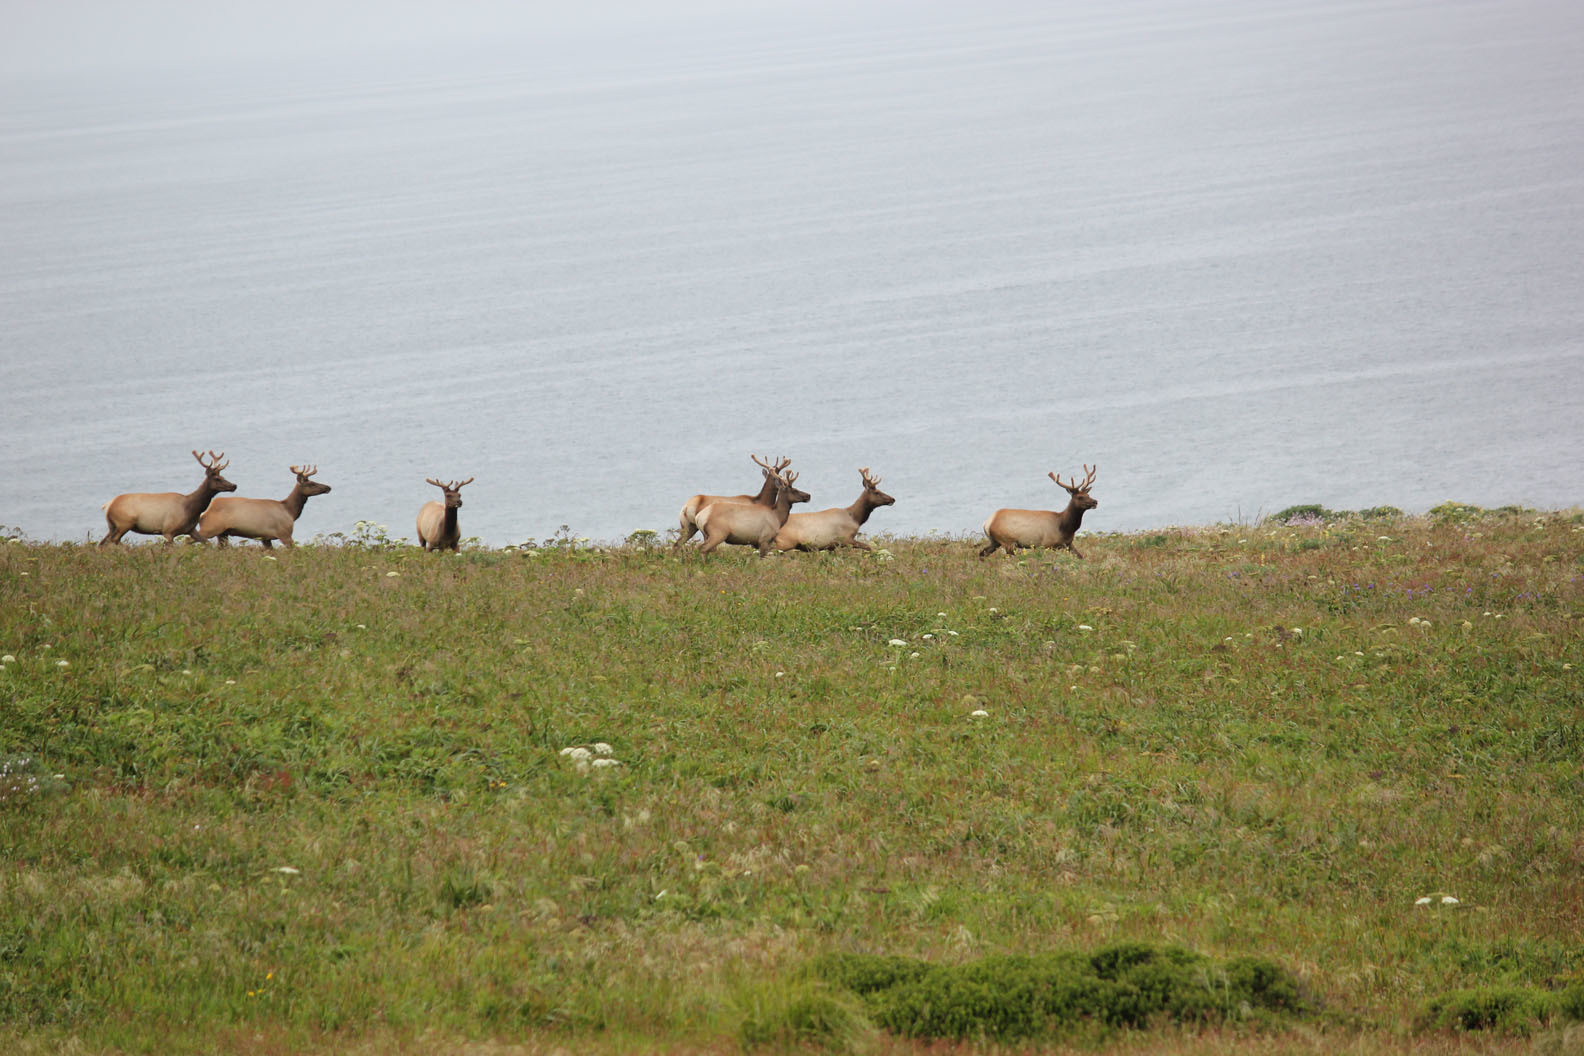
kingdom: Animalia
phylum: Chordata
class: Mammalia
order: Artiodactyla
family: Cervidae
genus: Cervus
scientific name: Cervus elaphus
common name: Red deer
